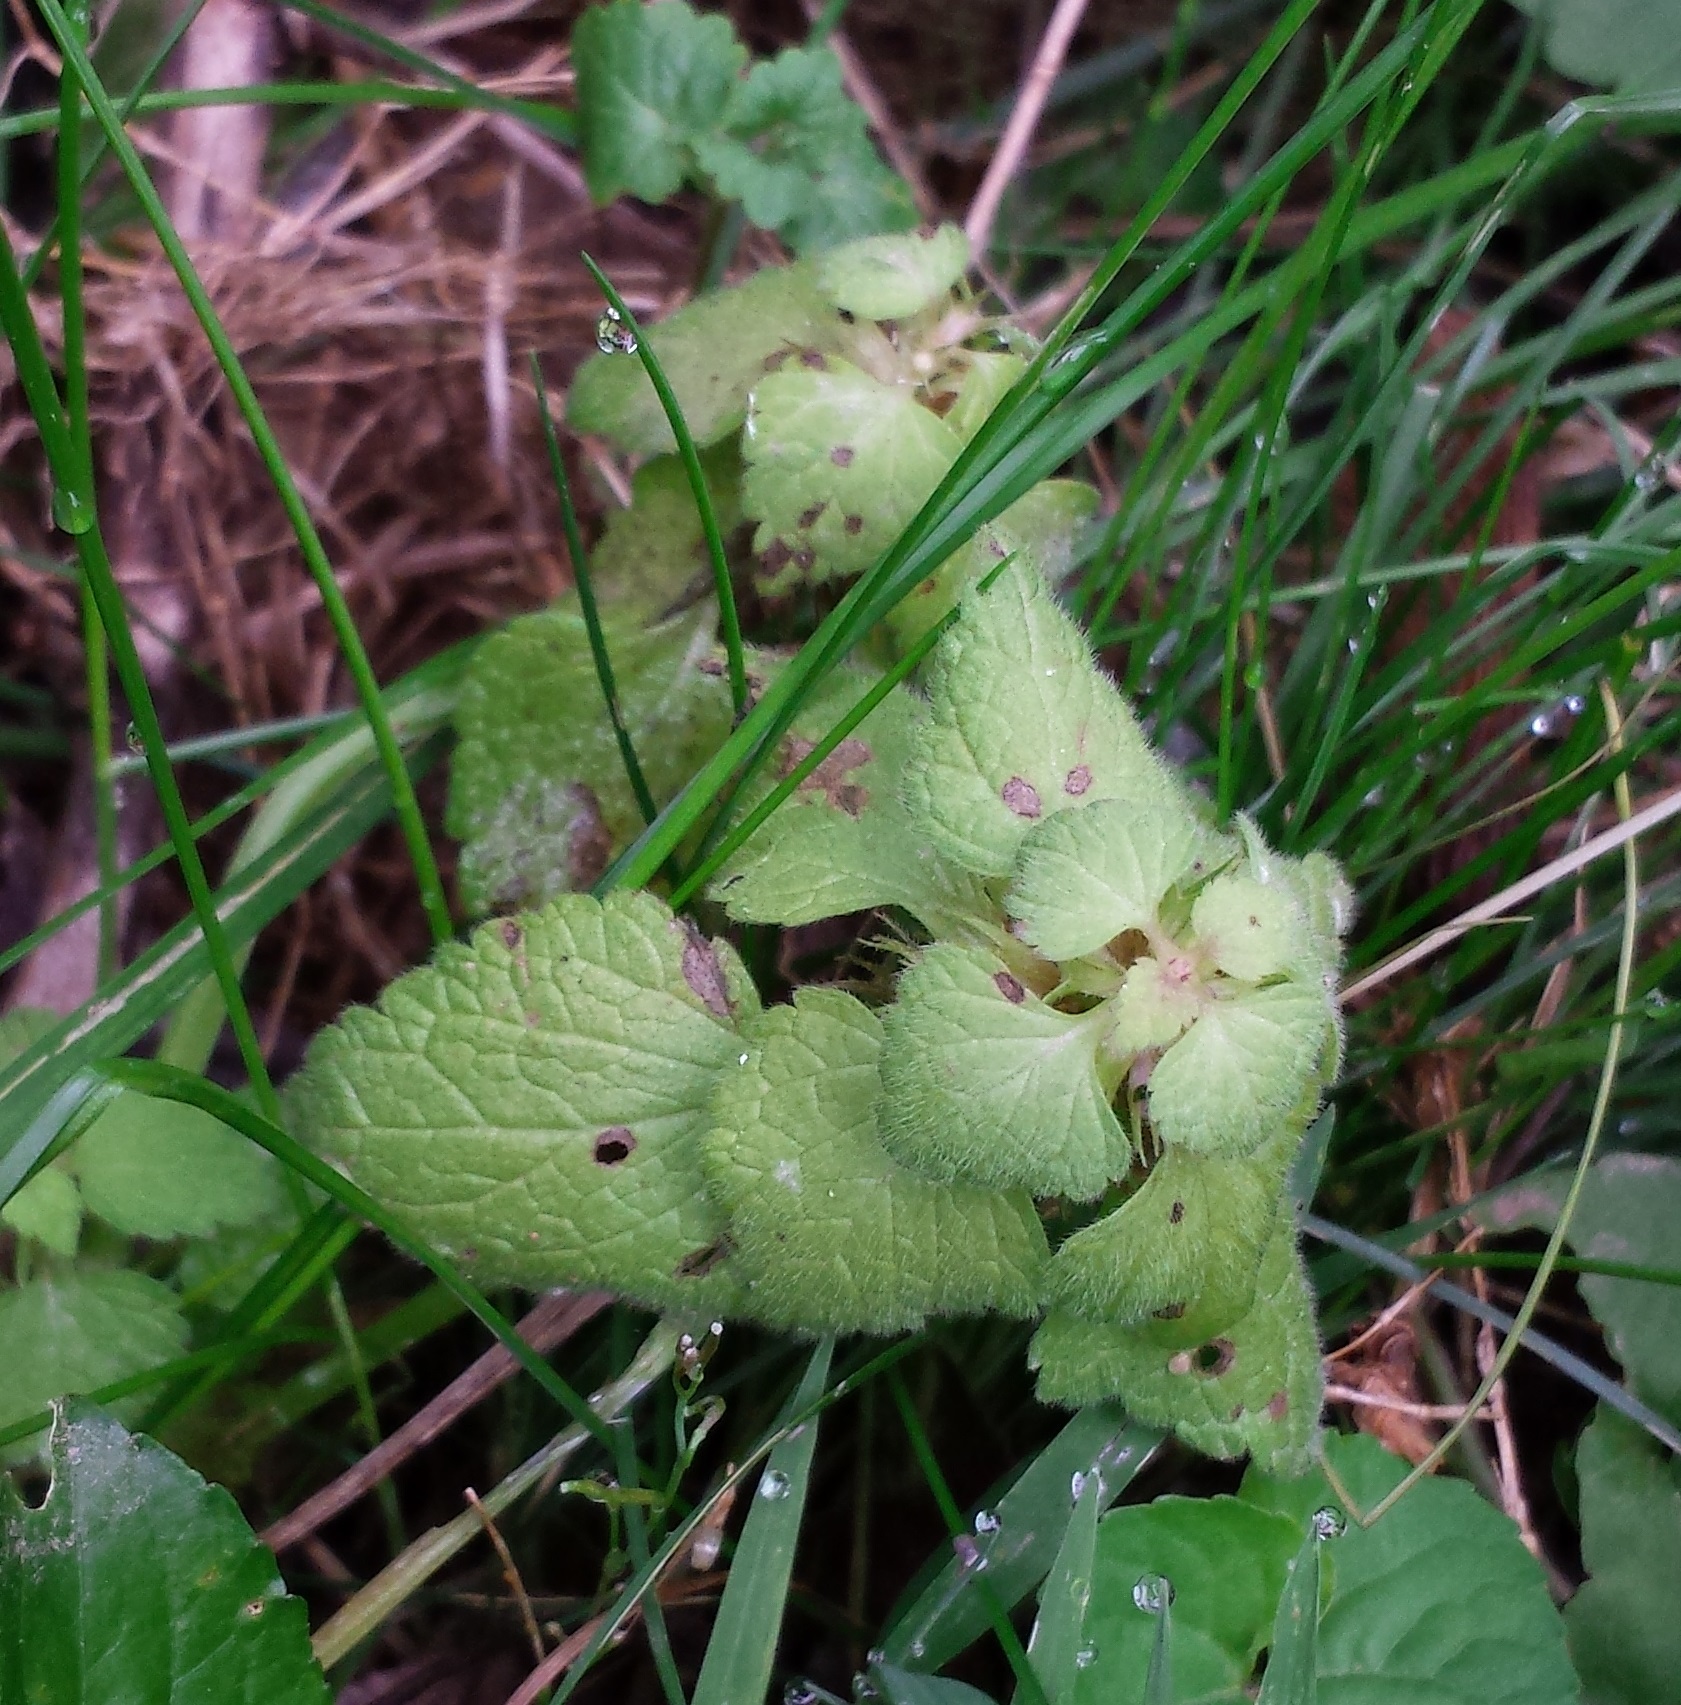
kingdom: Plantae
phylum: Tracheophyta
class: Magnoliopsida
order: Lamiales
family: Lamiaceae
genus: Lamium
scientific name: Lamium purpureum
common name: Red dead-nettle
